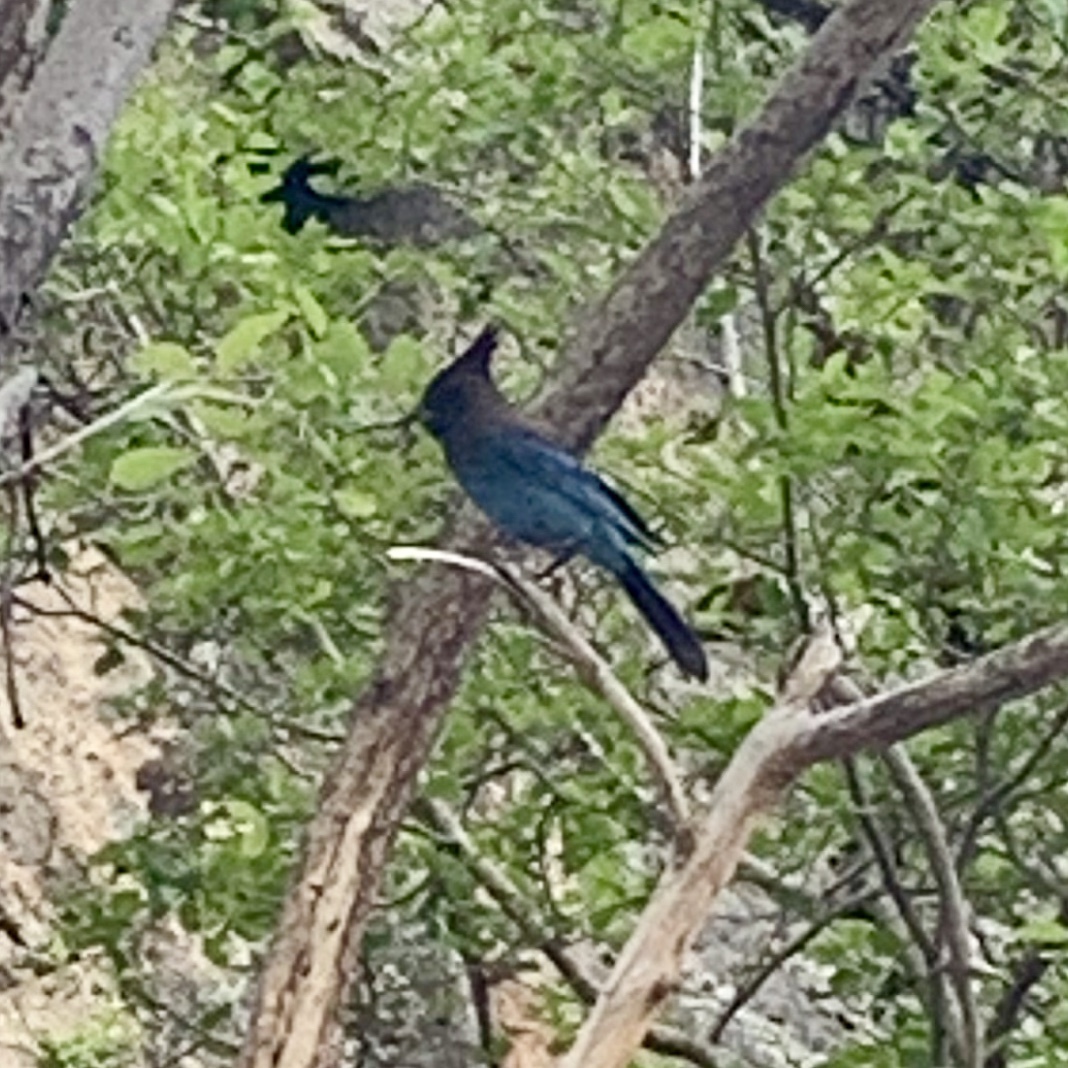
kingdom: Animalia
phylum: Chordata
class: Aves
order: Passeriformes
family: Corvidae
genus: Cyanocitta
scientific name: Cyanocitta stelleri
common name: Steller's jay
